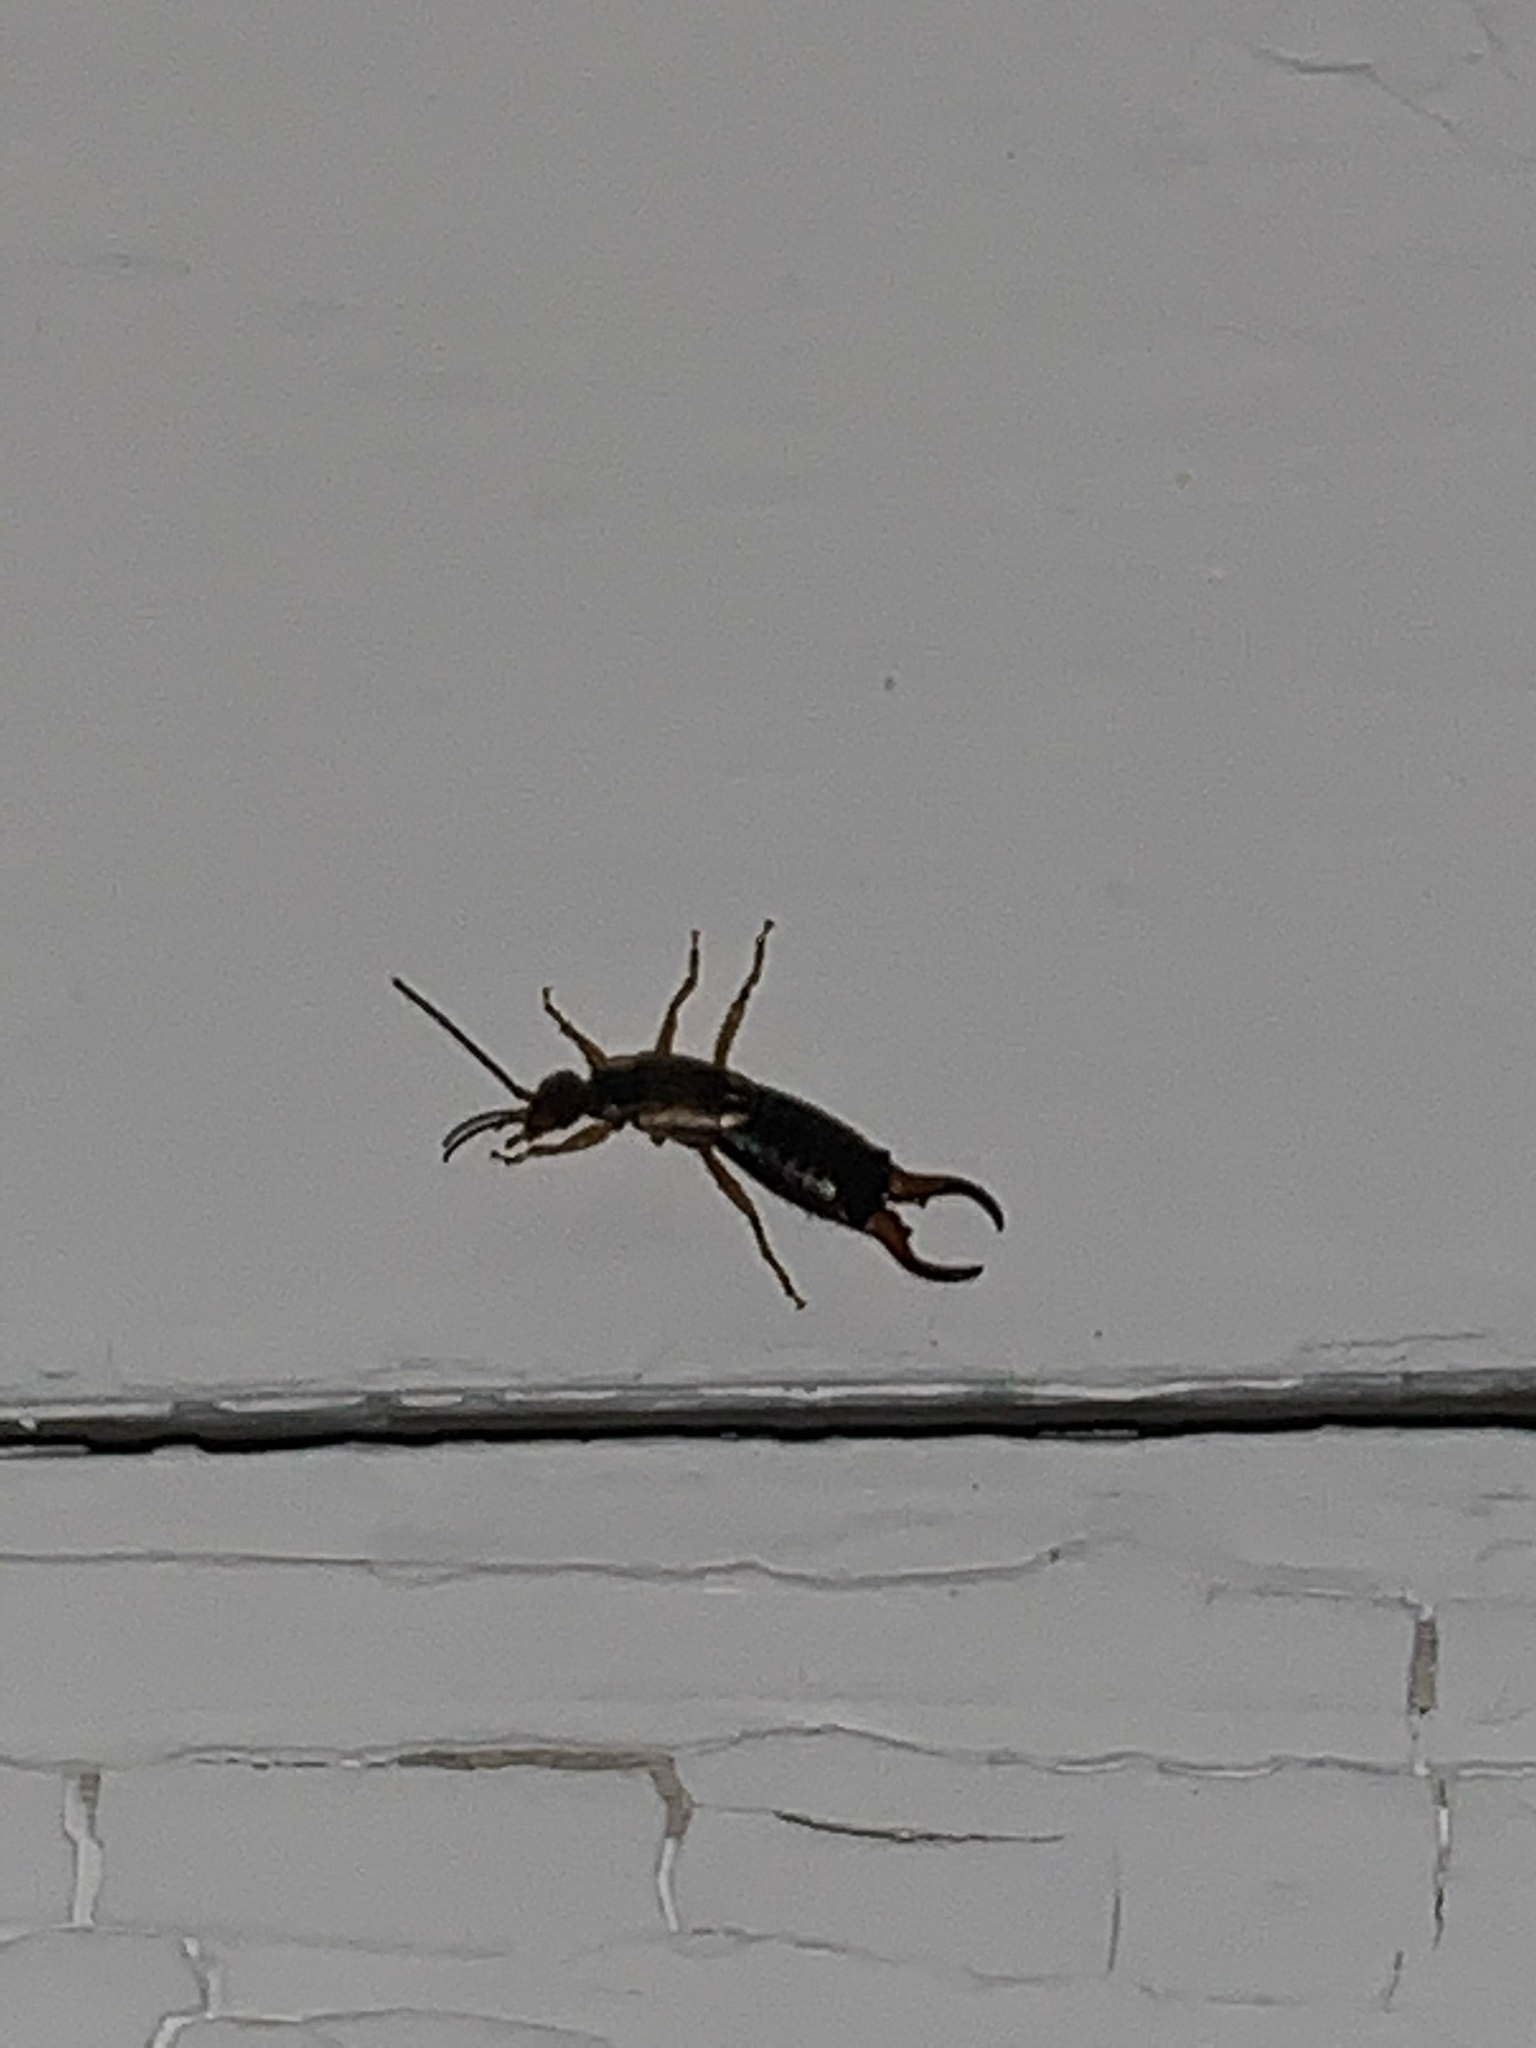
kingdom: Animalia
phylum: Arthropoda
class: Insecta
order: Dermaptera
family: Forficulidae
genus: Forficula
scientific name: Forficula
